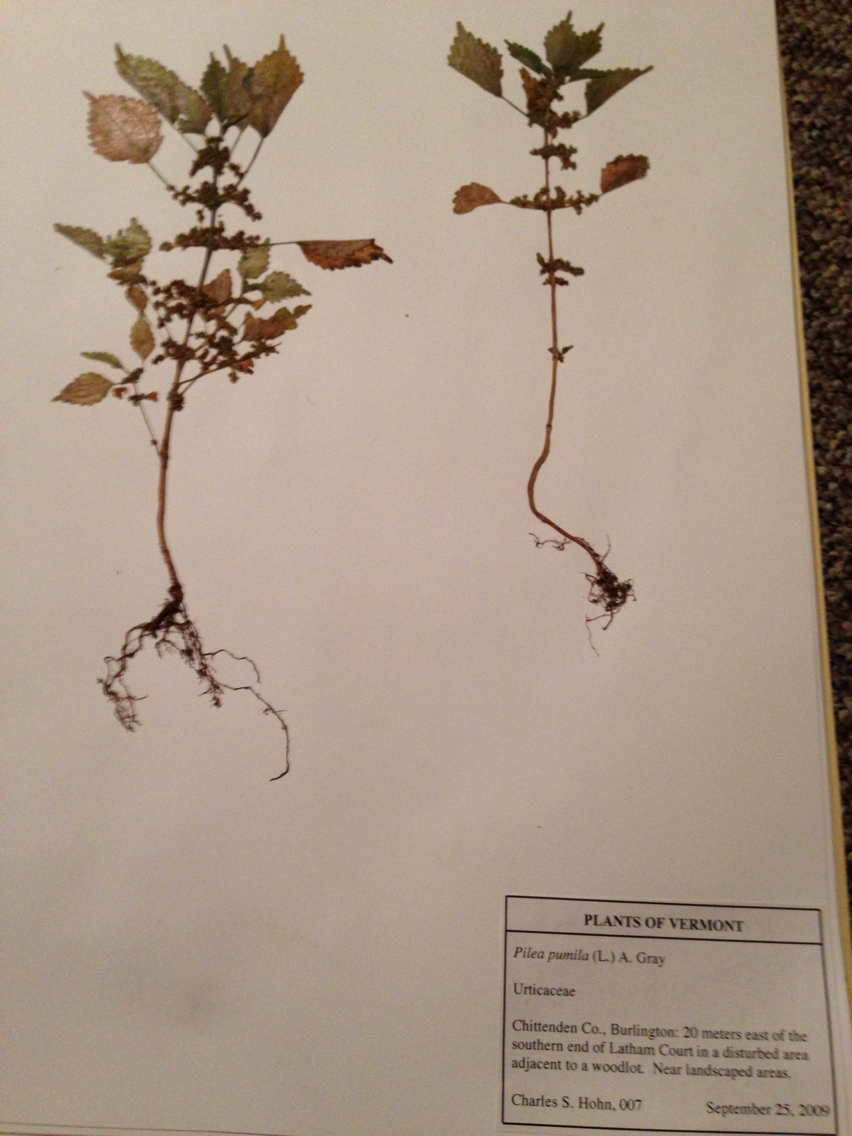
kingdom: Plantae
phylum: Tracheophyta
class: Magnoliopsida
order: Rosales
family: Urticaceae
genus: Pilea
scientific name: Pilea pumila
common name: Clearweed
